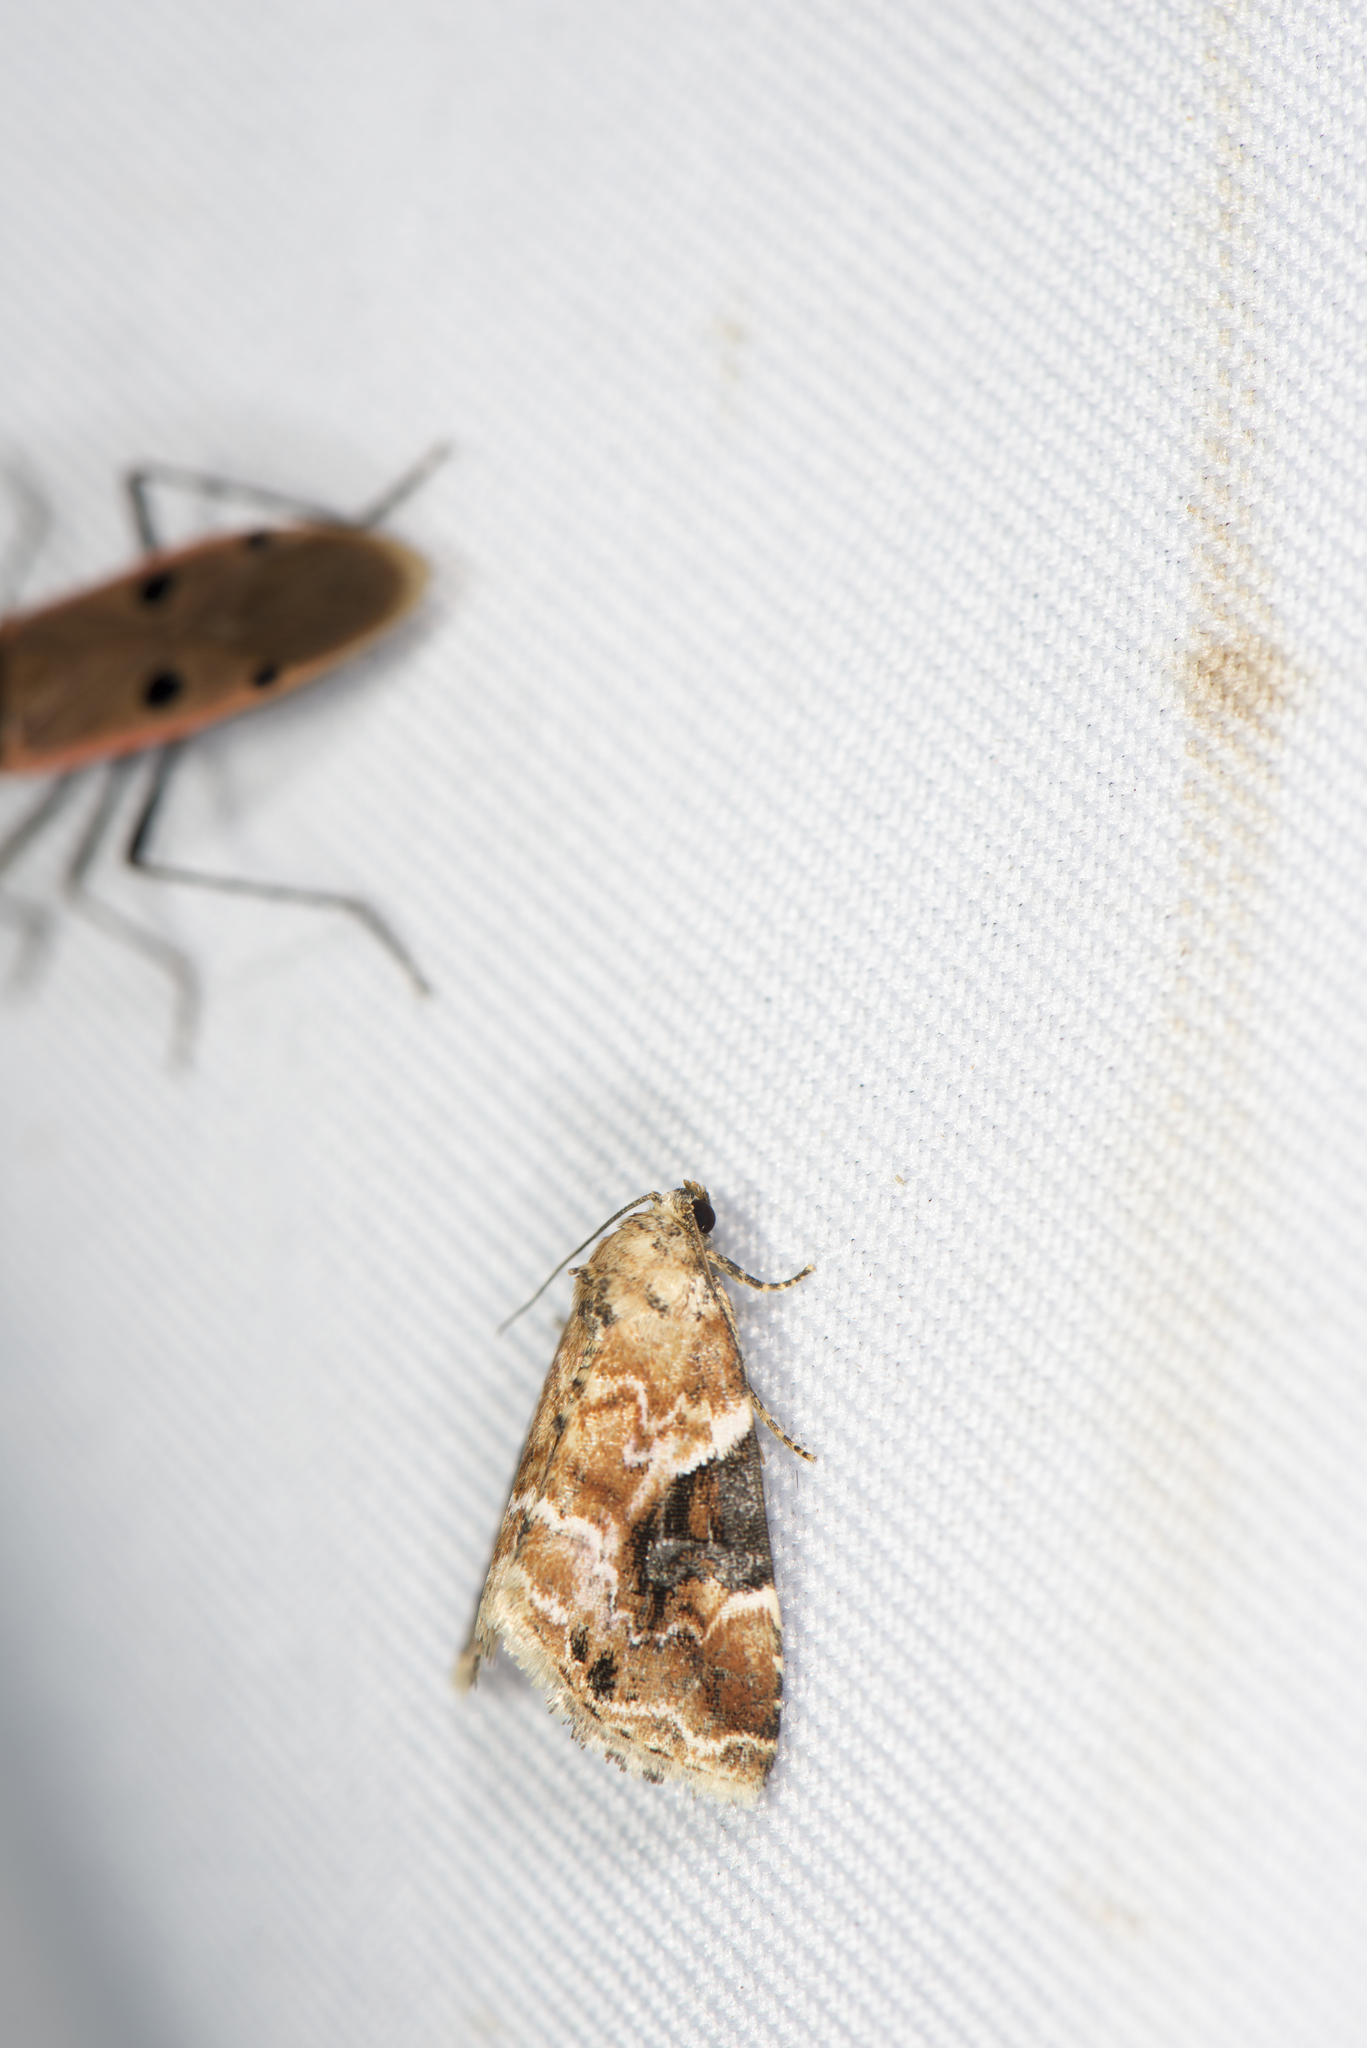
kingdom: Animalia
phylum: Arthropoda
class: Insecta
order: Lepidoptera
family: Noctuidae
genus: Pseudodeltote
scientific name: Pseudodeltote coenia
